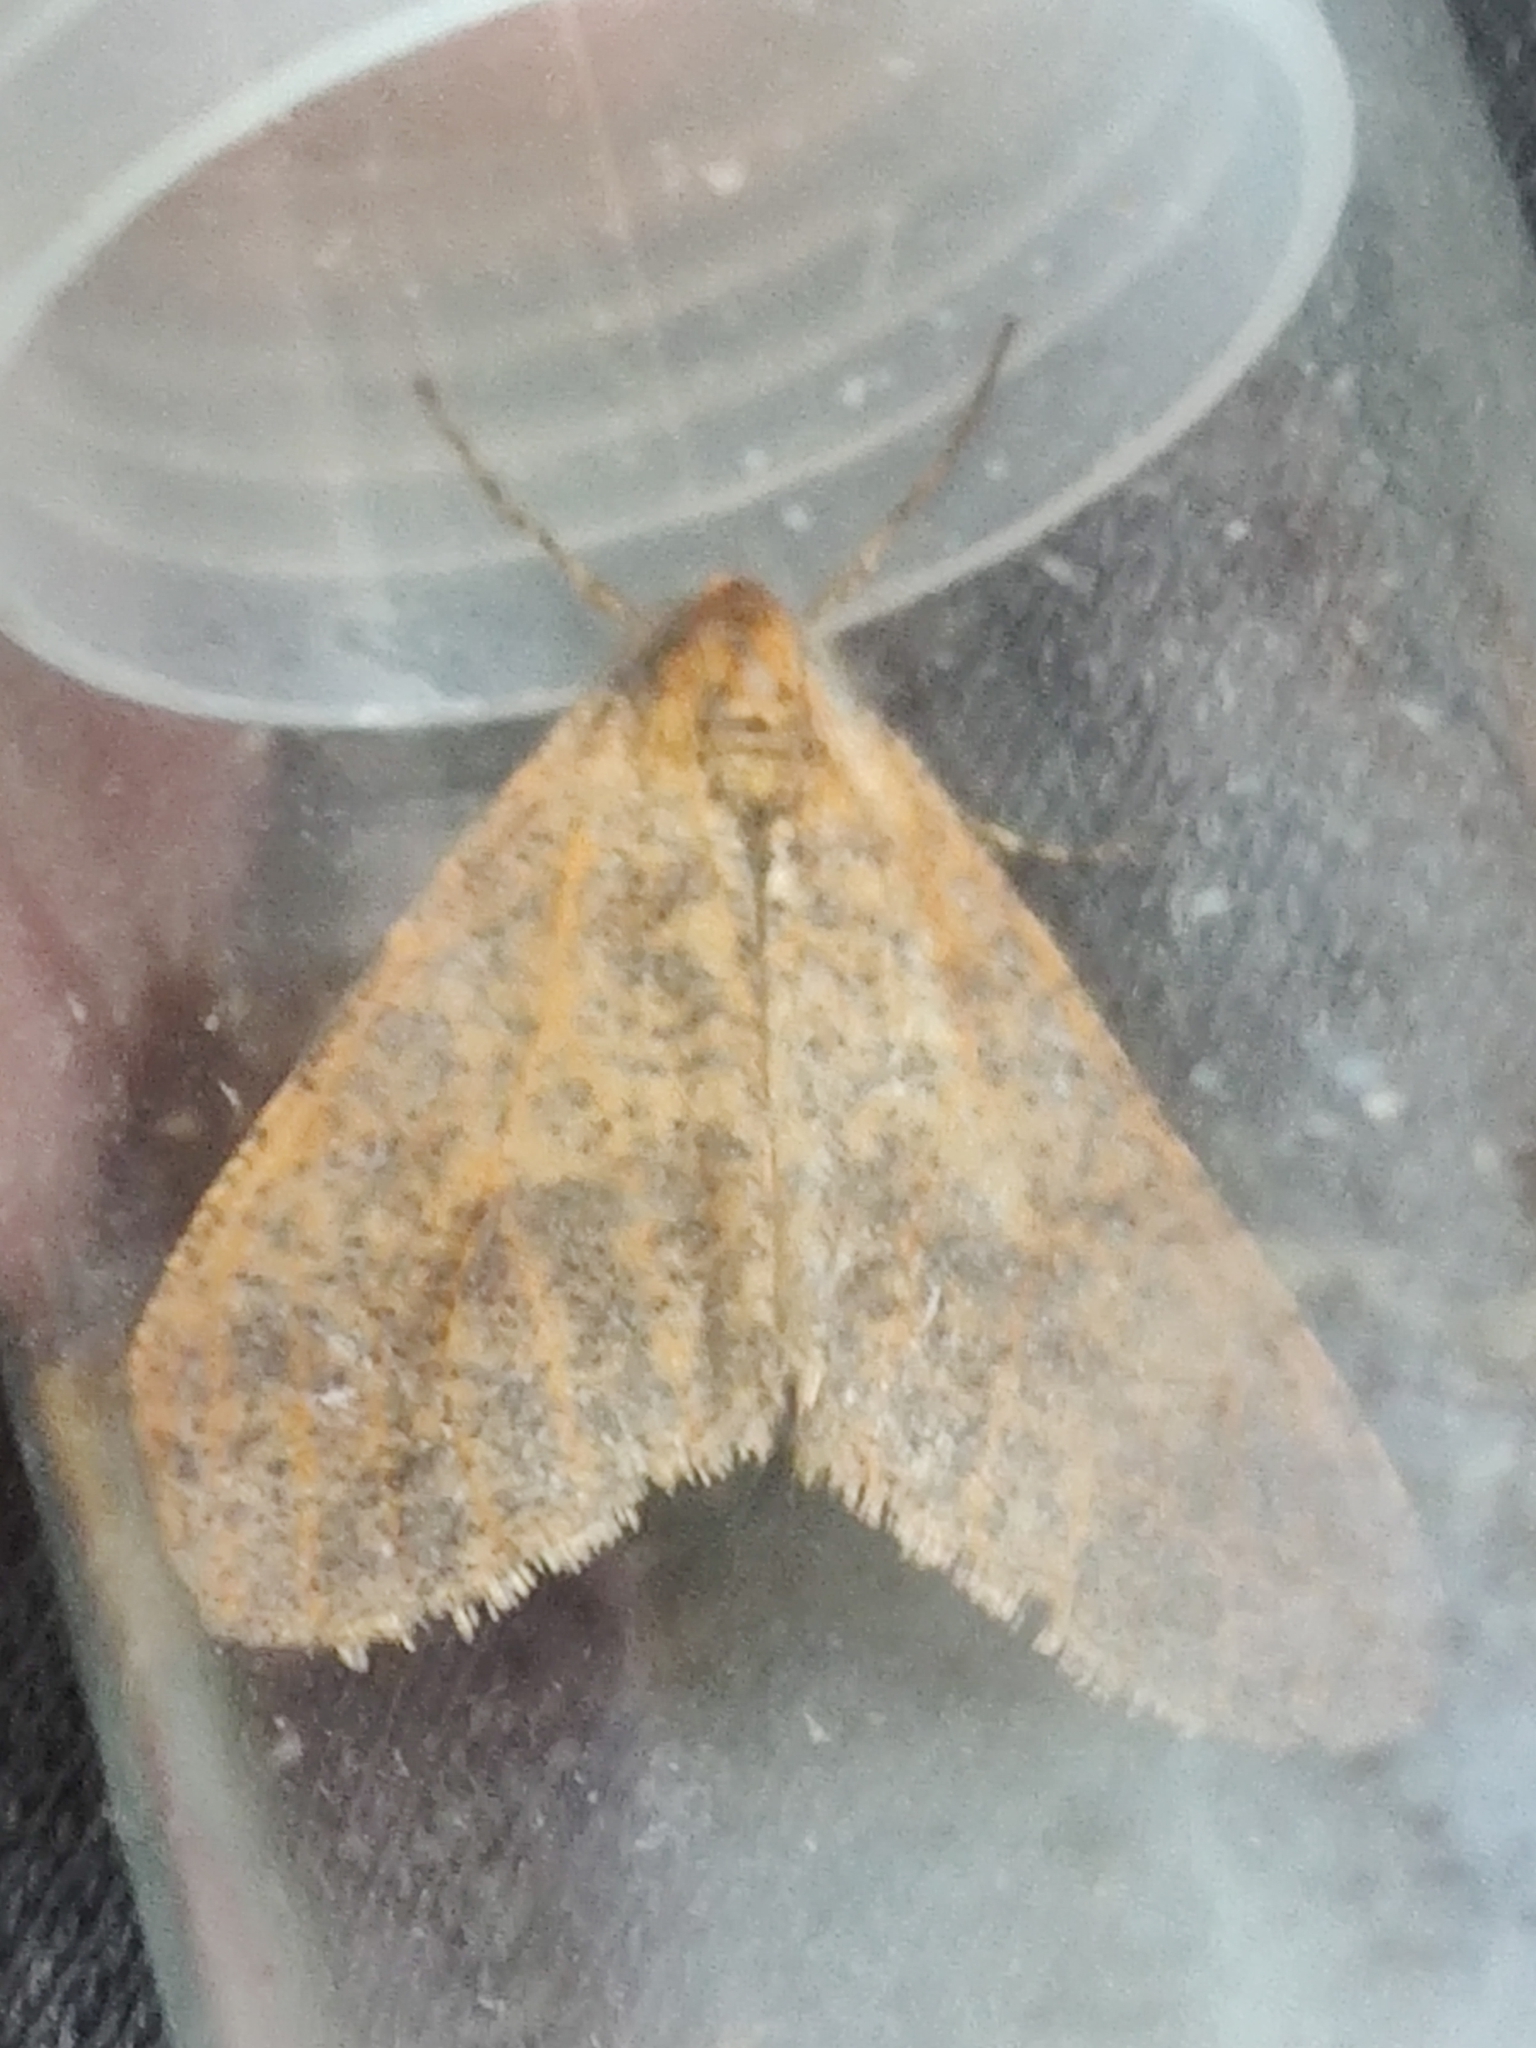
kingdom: Animalia
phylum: Arthropoda
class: Insecta
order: Lepidoptera
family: Geometridae
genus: Erannis
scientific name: Erannis defoliaria
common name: Mottled umber
